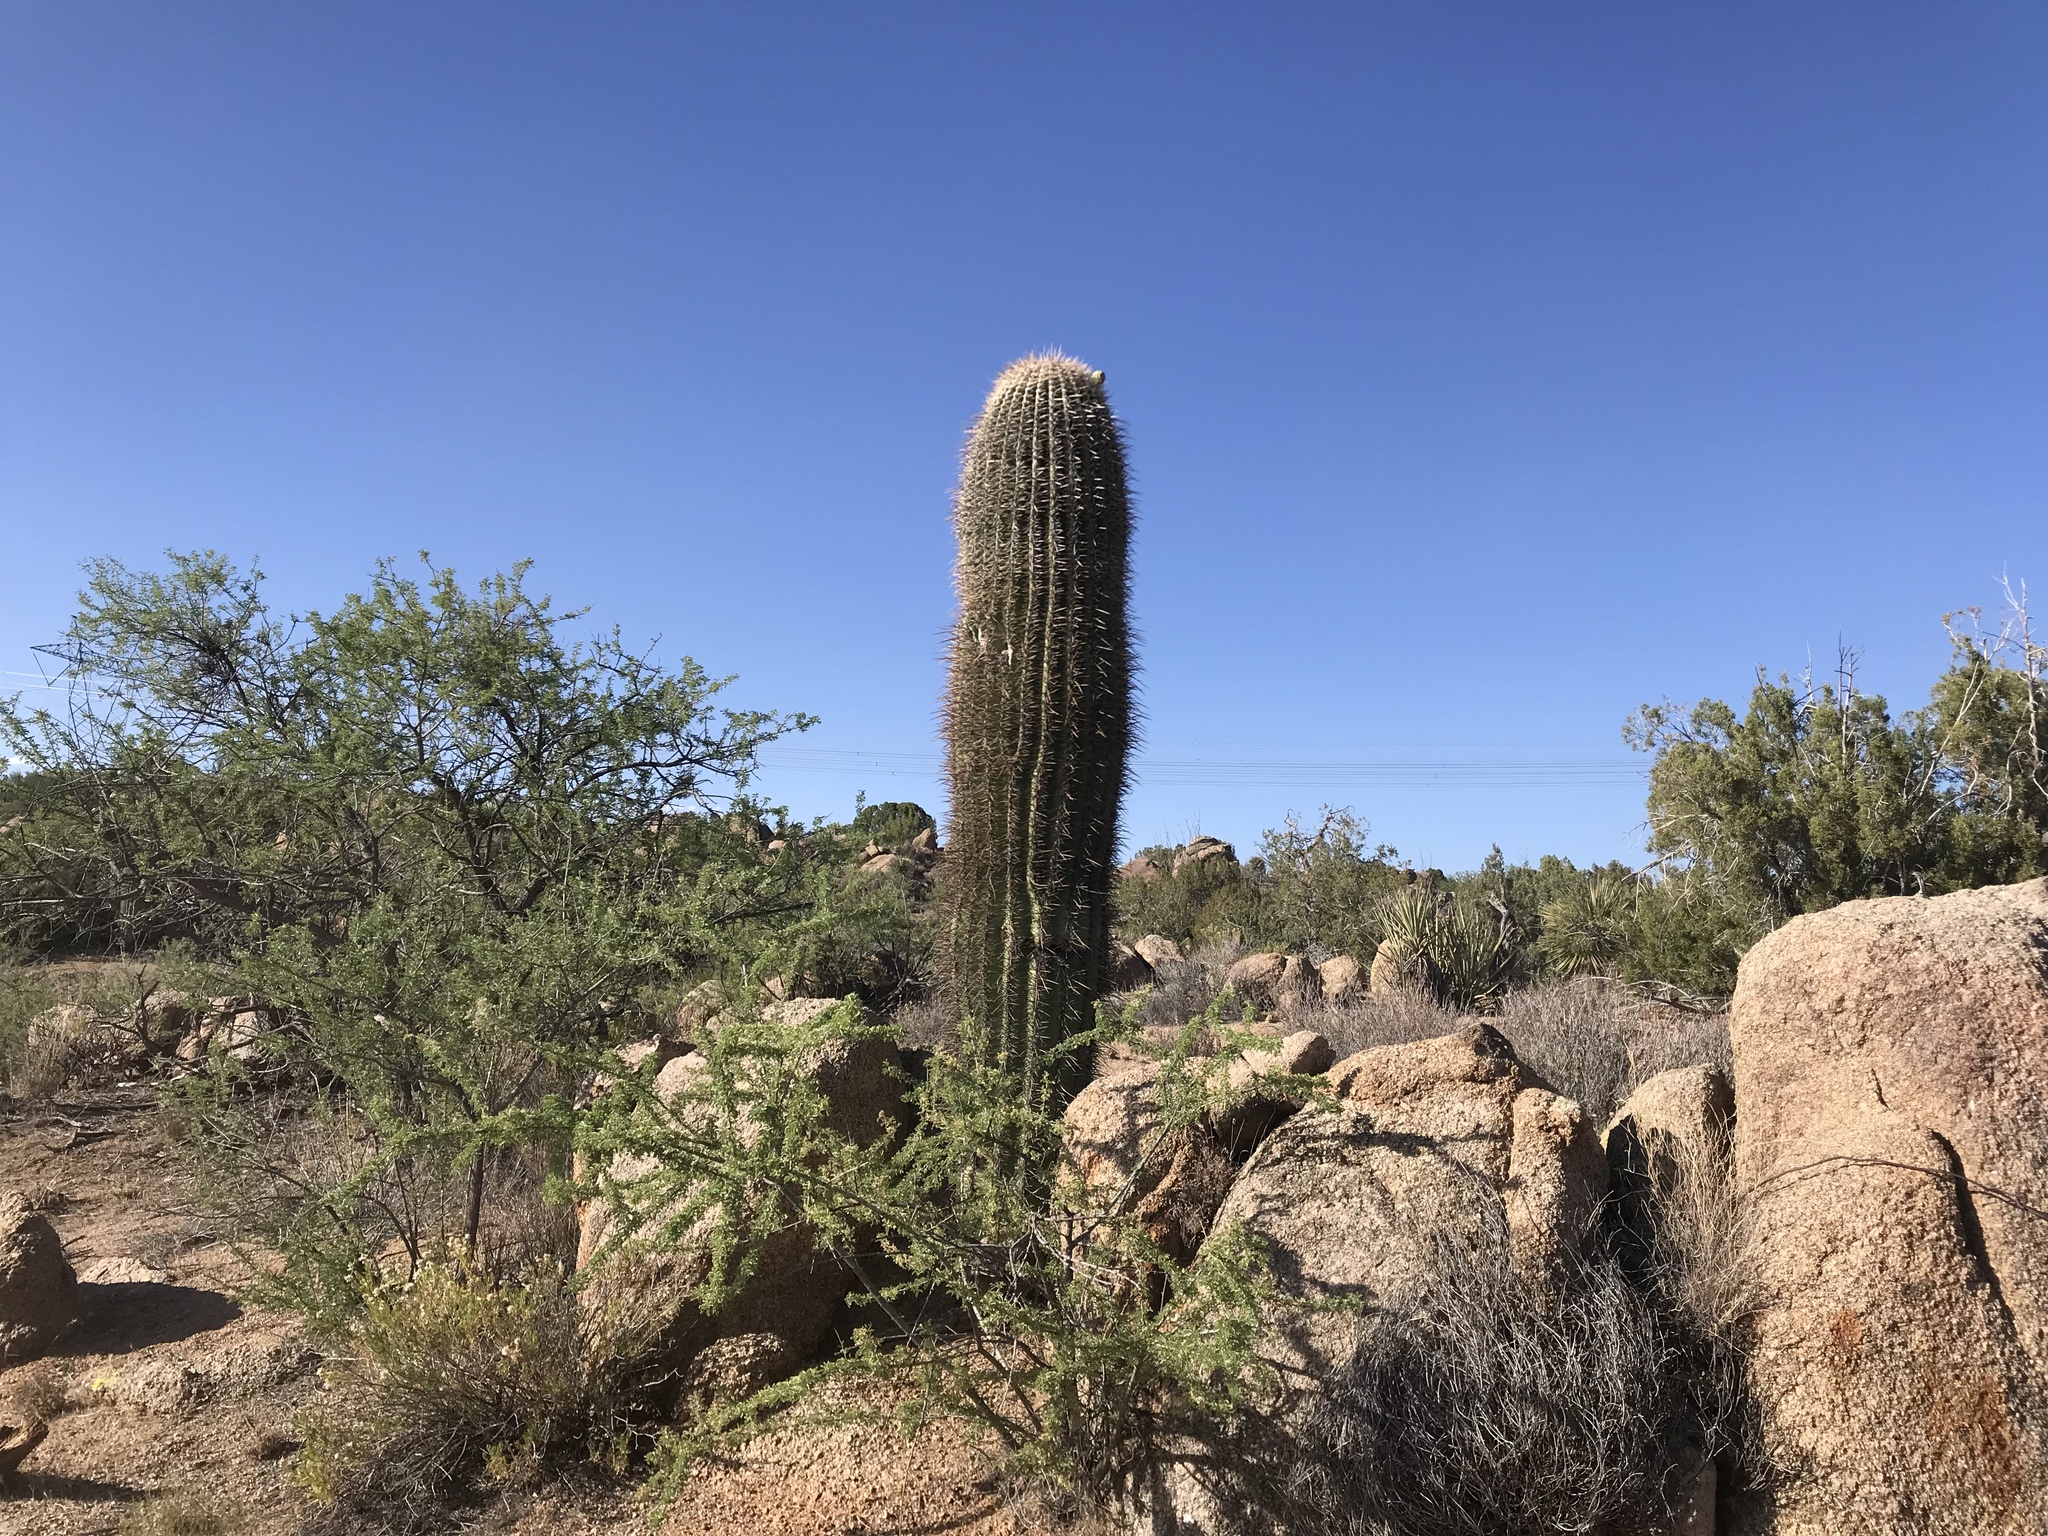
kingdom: Plantae
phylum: Tracheophyta
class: Magnoliopsida
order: Caryophyllales
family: Cactaceae
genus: Carnegiea
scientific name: Carnegiea gigantea
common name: Saguaro
